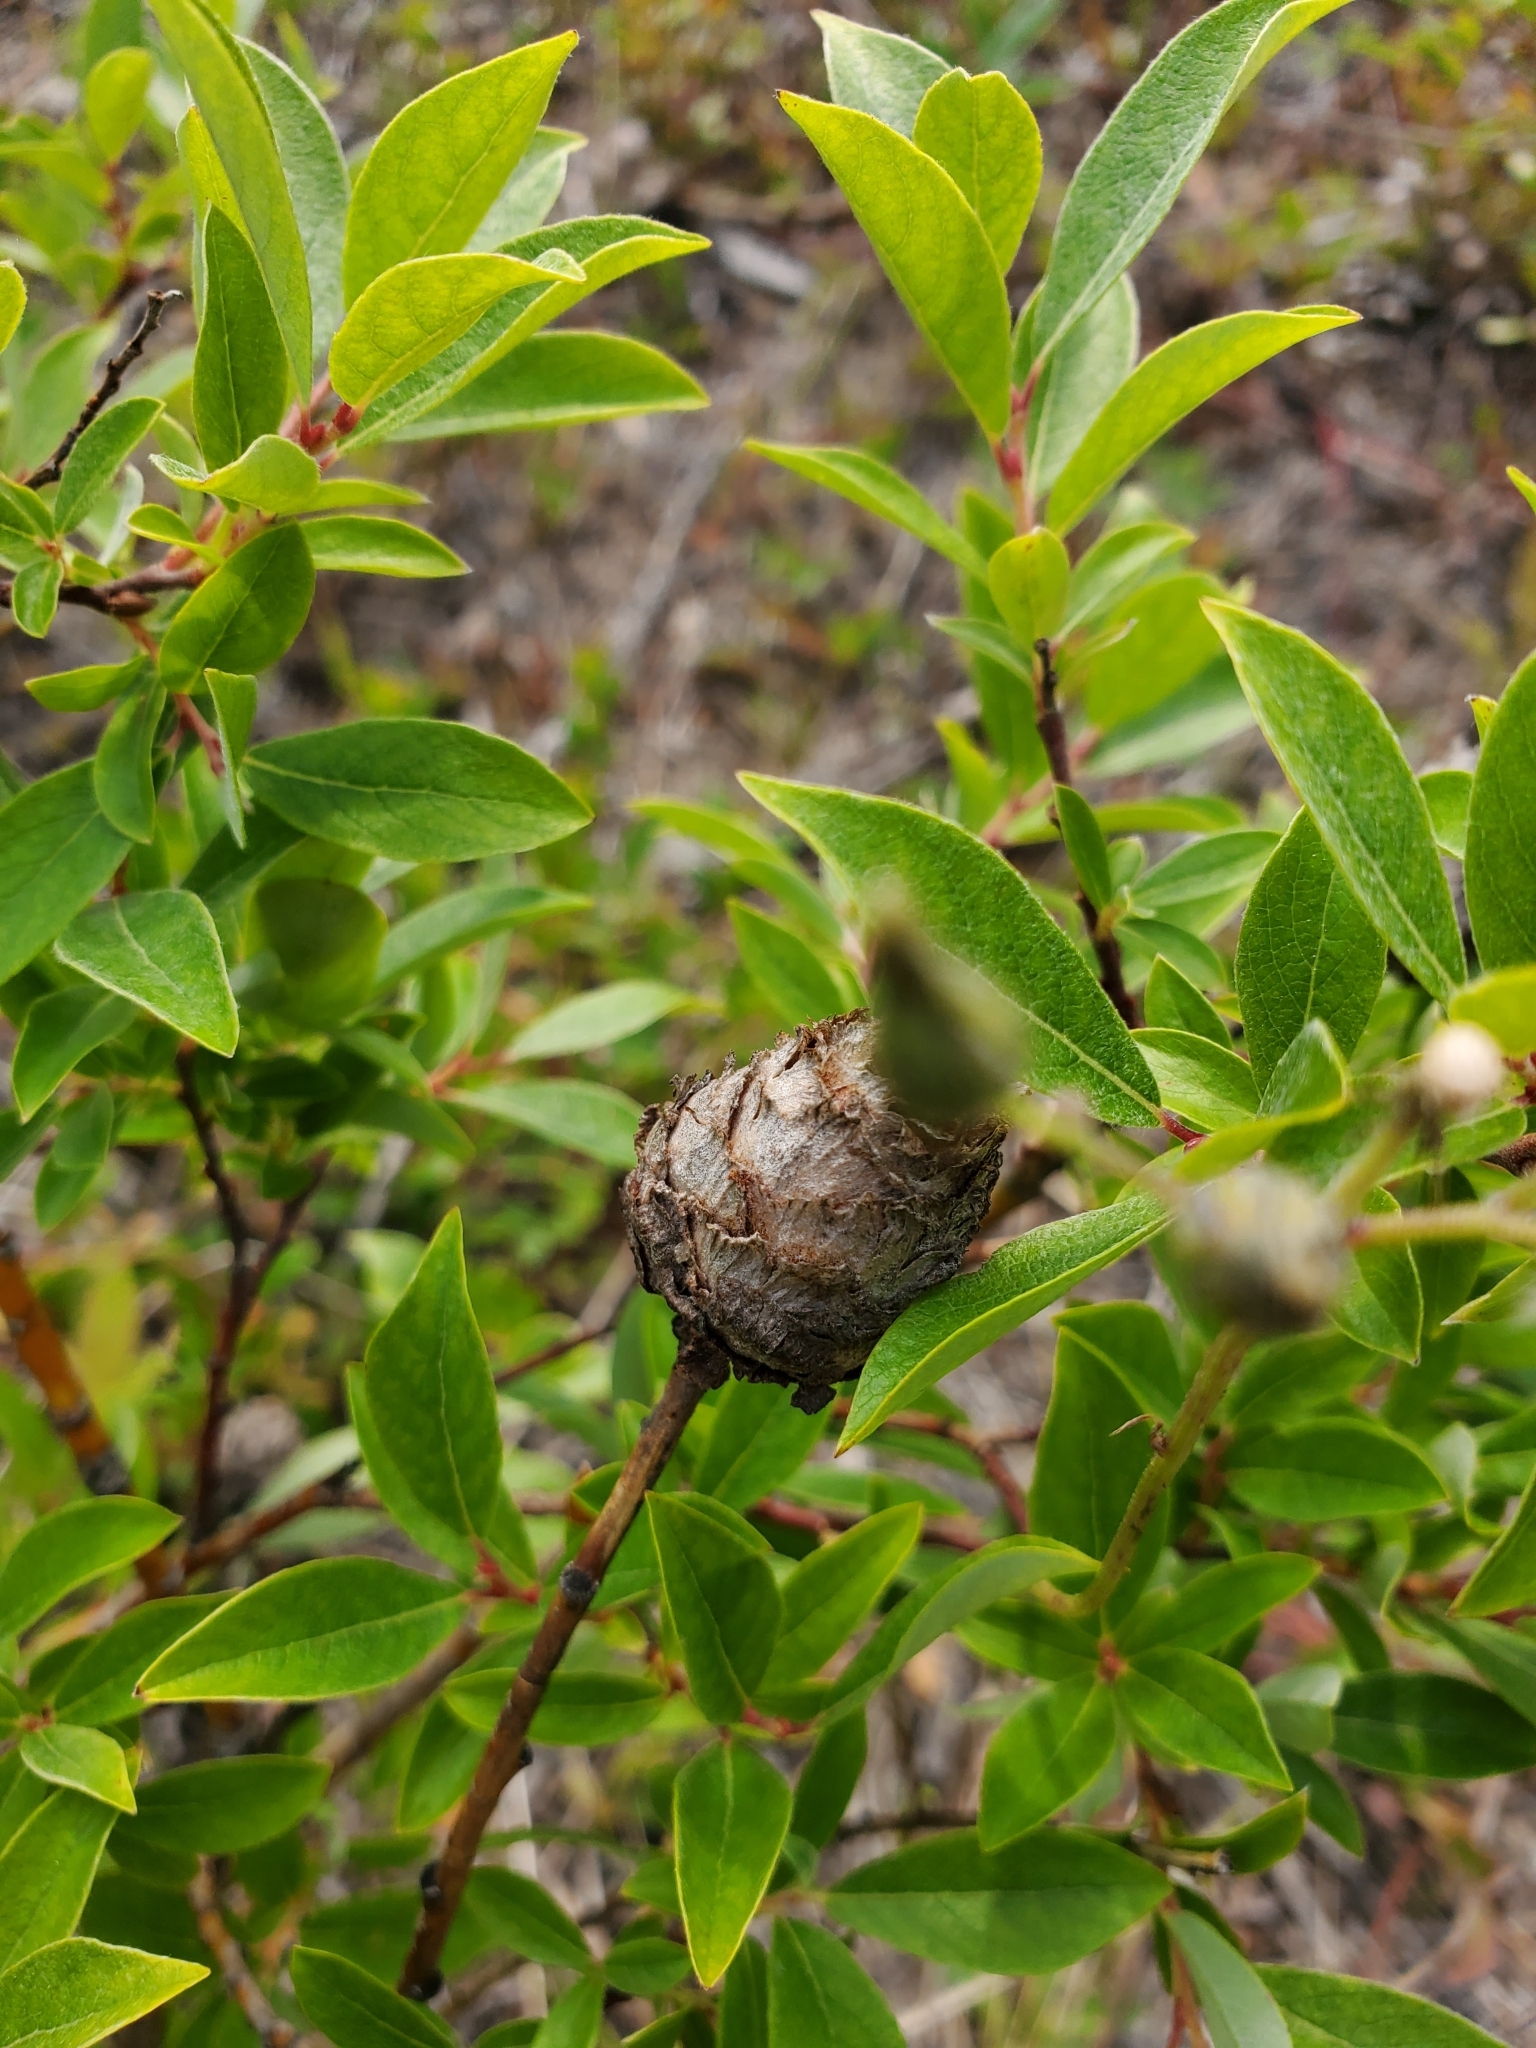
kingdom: Animalia
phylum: Arthropoda
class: Insecta
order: Diptera
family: Cecidomyiidae
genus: Rabdophaga
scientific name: Rabdophaga strobiloides
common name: Willow pinecone gall midge
